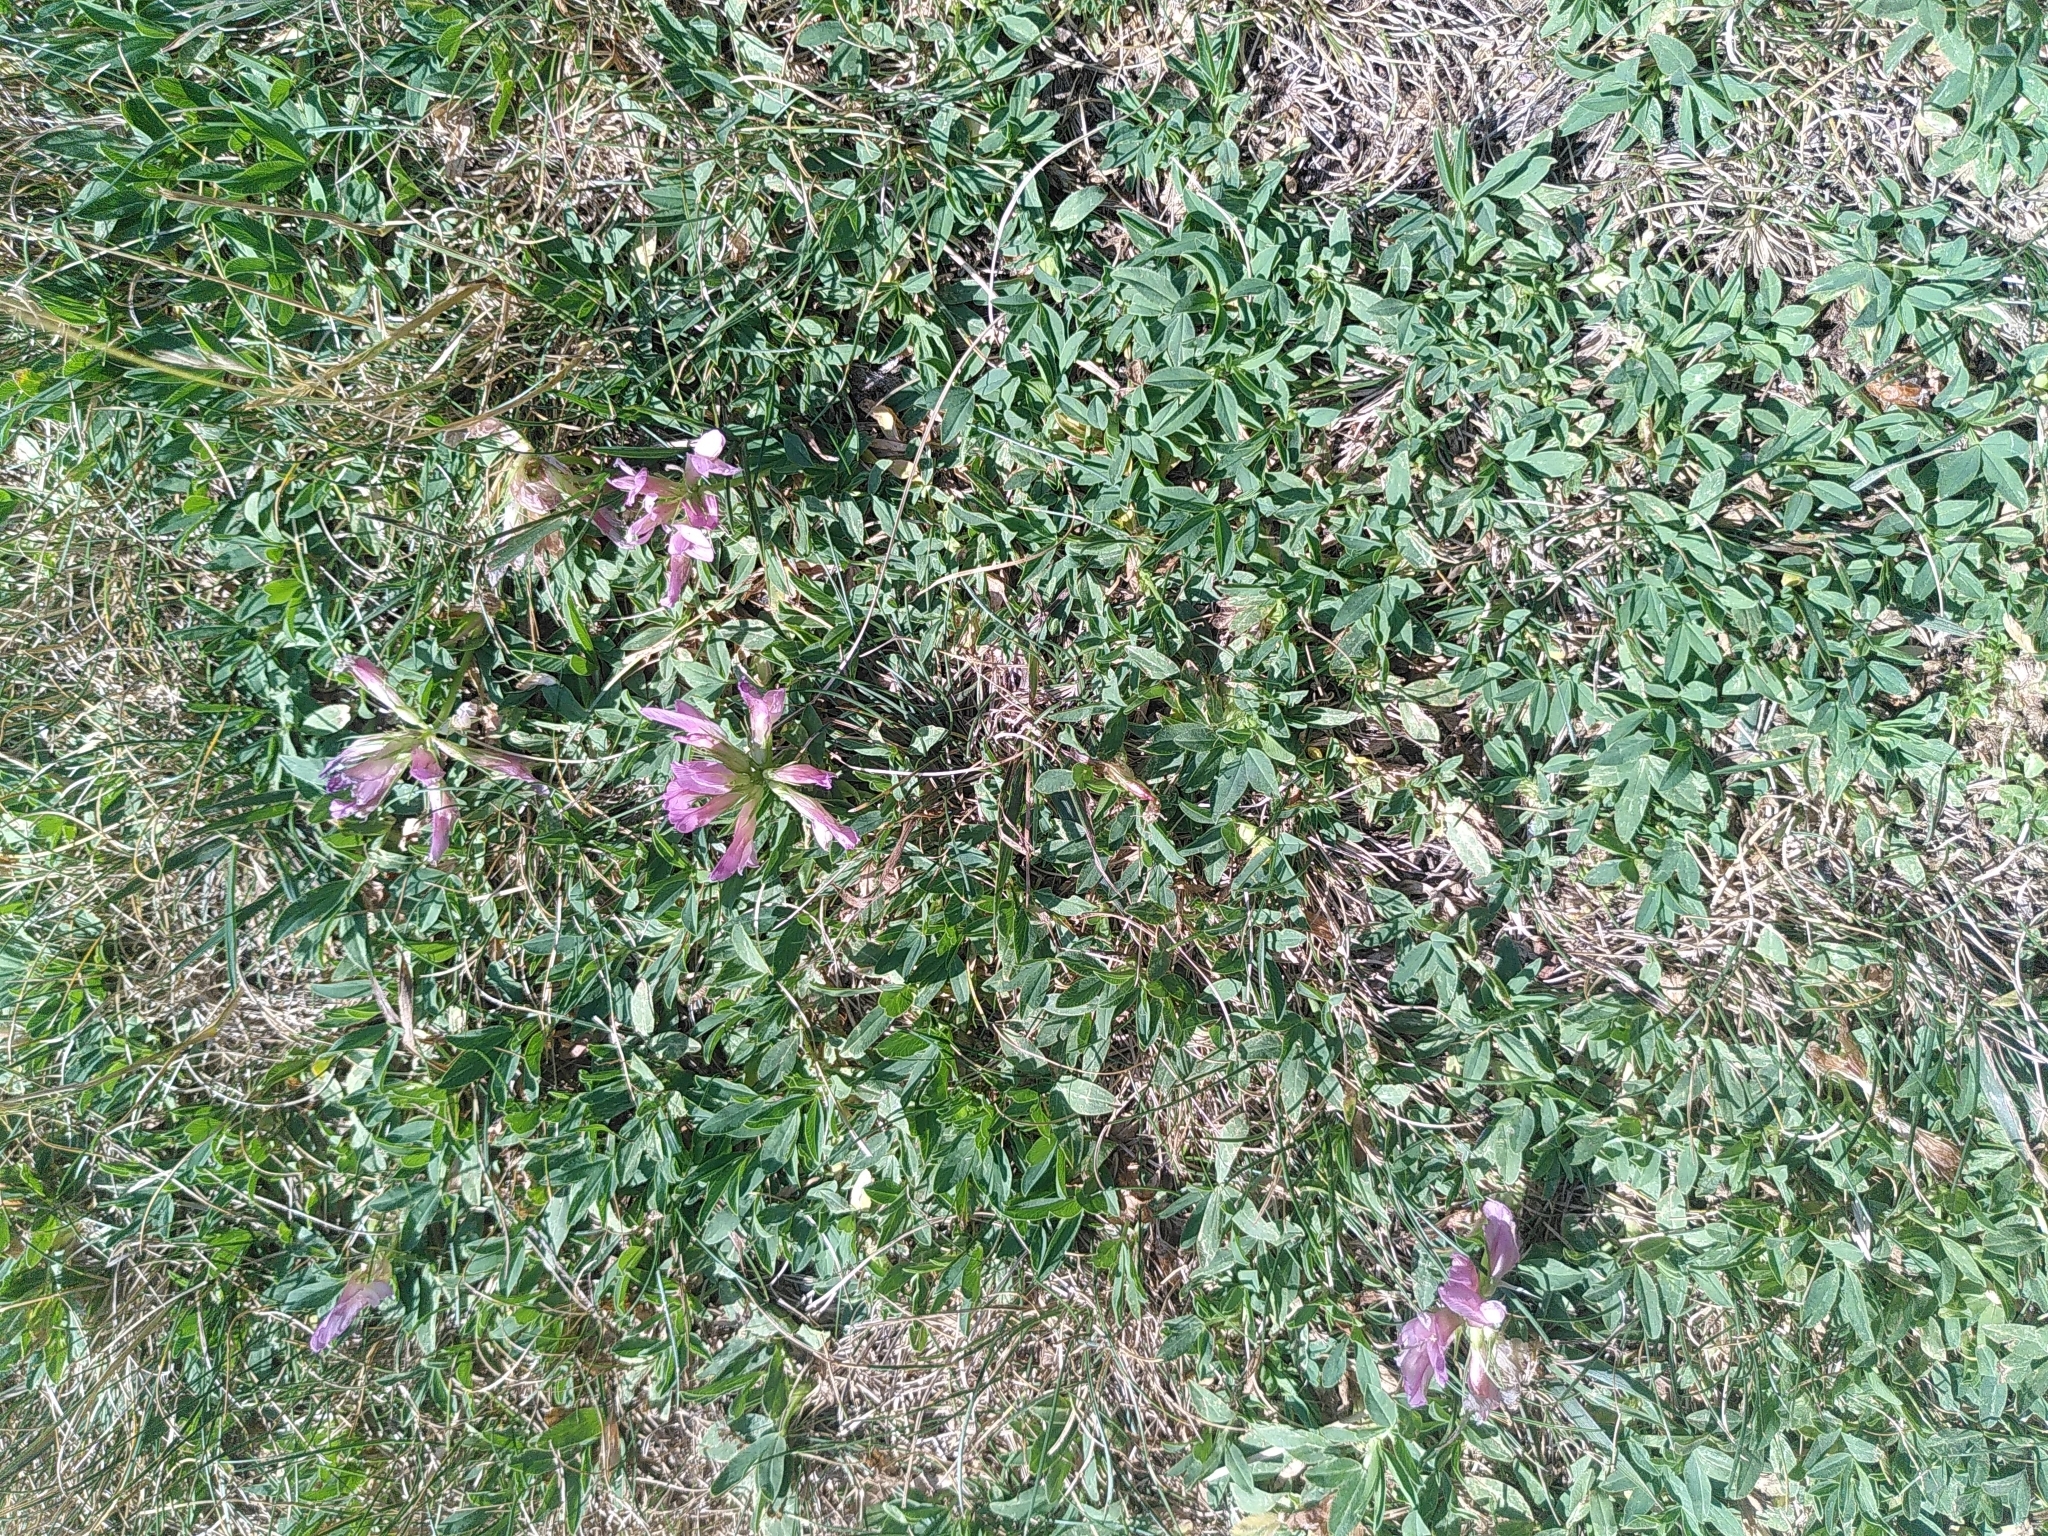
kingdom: Plantae
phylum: Tracheophyta
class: Magnoliopsida
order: Fabales
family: Fabaceae
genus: Trifolium
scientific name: Trifolium alpinum
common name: Alpine clover
